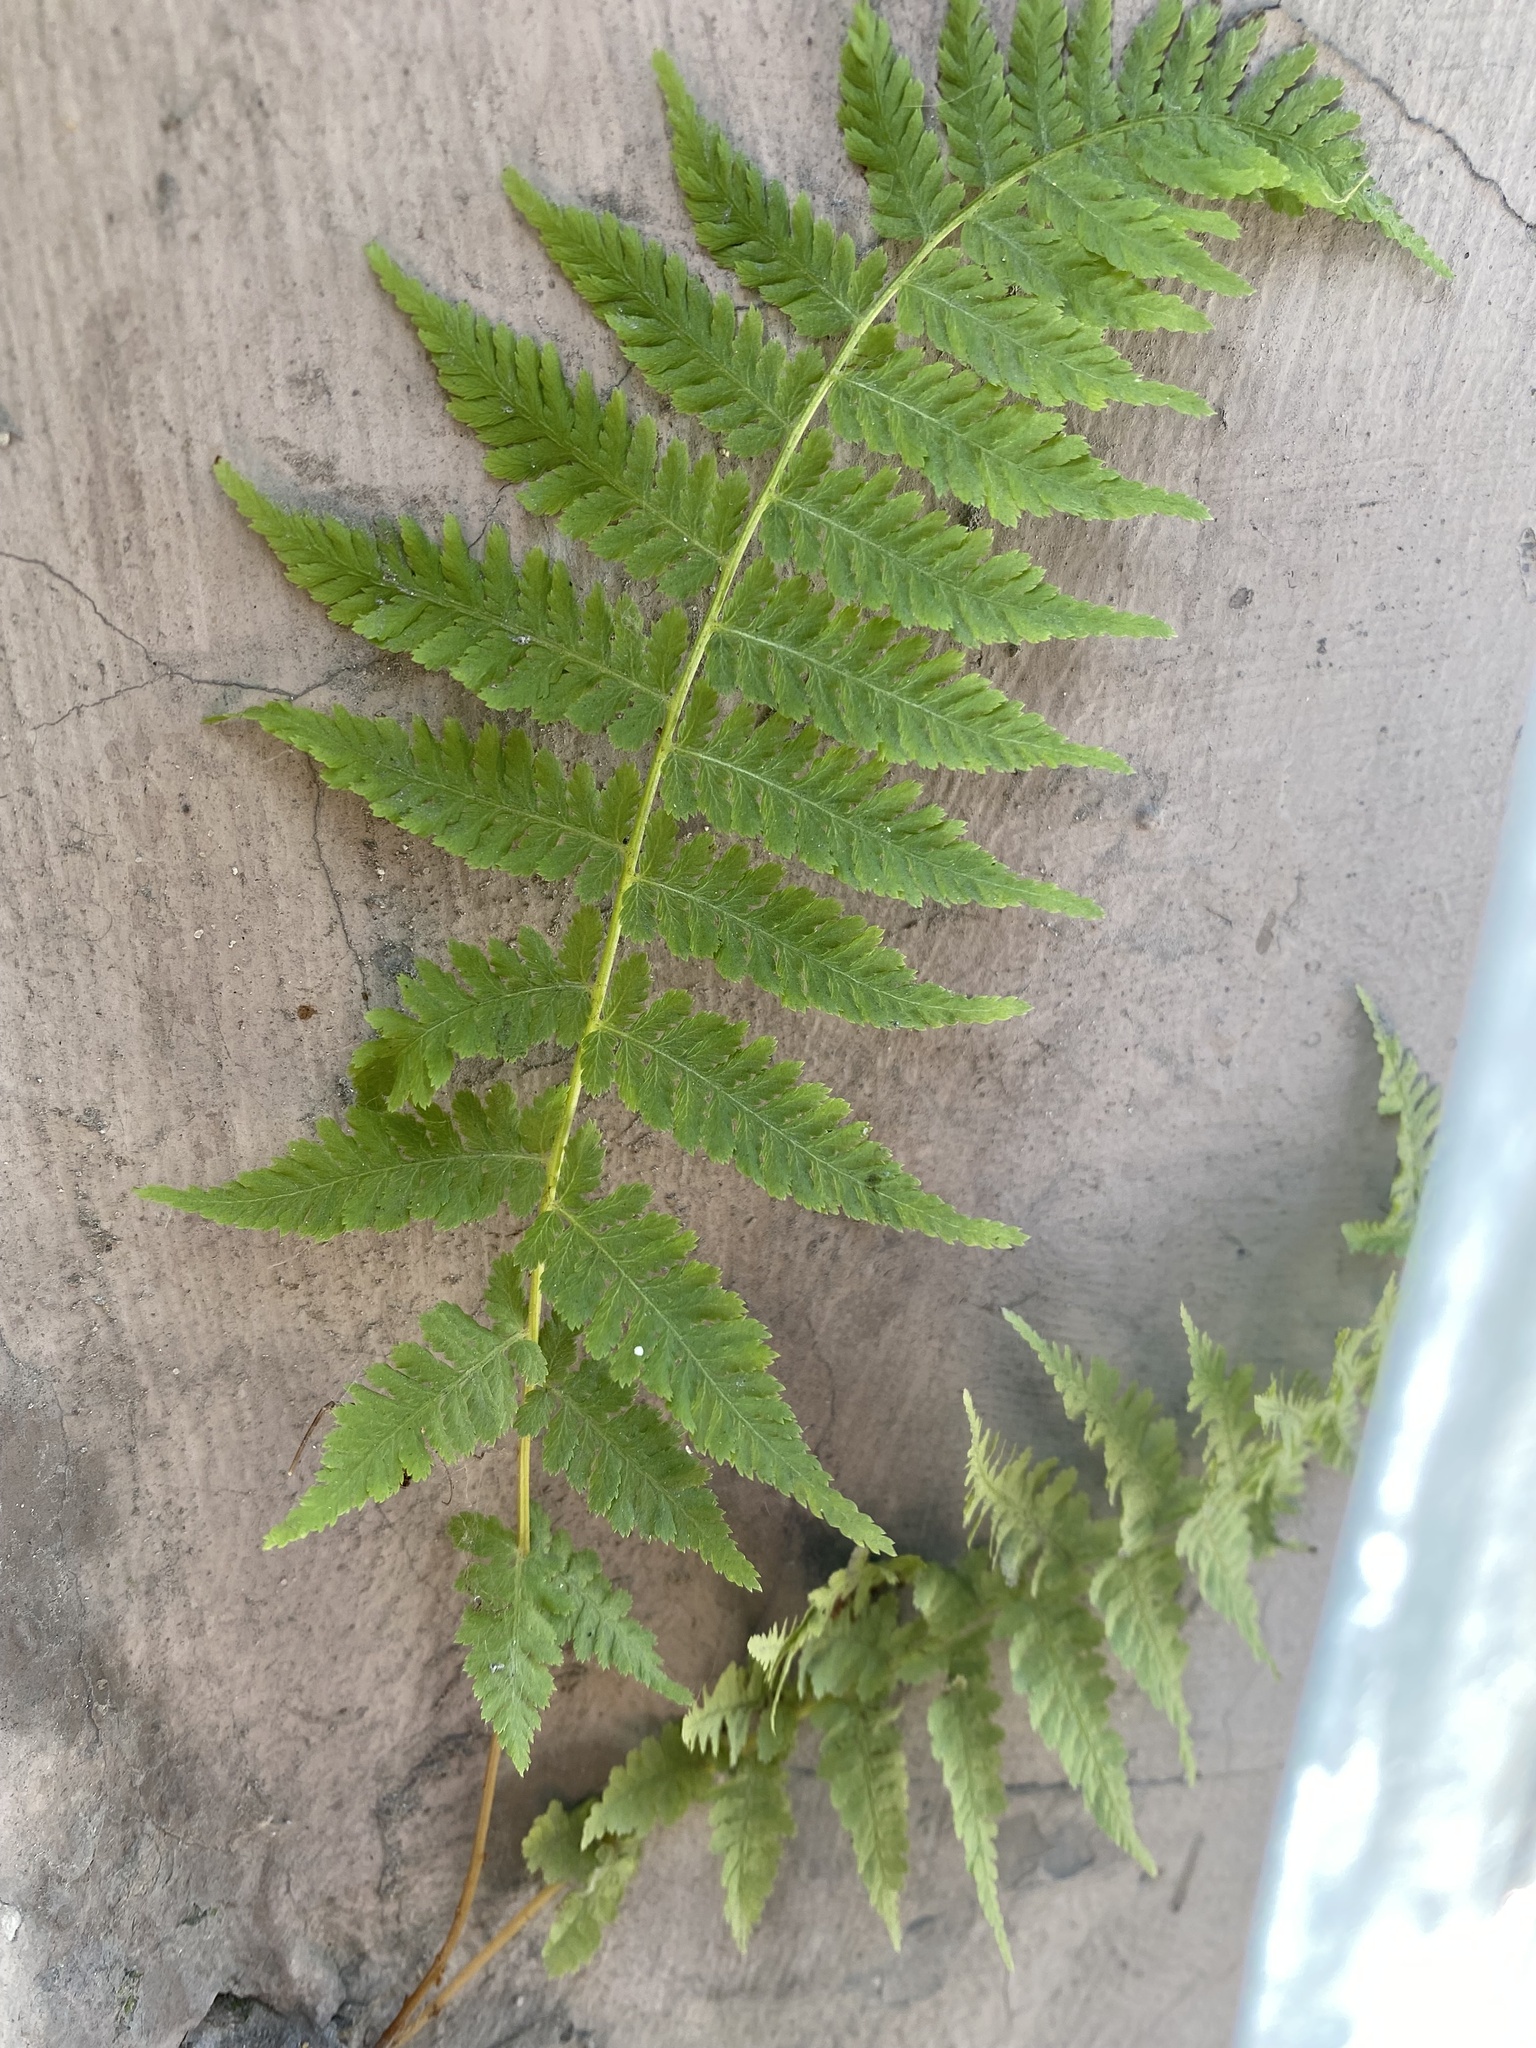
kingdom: Plantae
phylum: Tracheophyta
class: Polypodiopsida
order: Polypodiales
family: Athyriaceae
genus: Athyrium
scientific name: Athyrium filix-femina
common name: Lady fern
